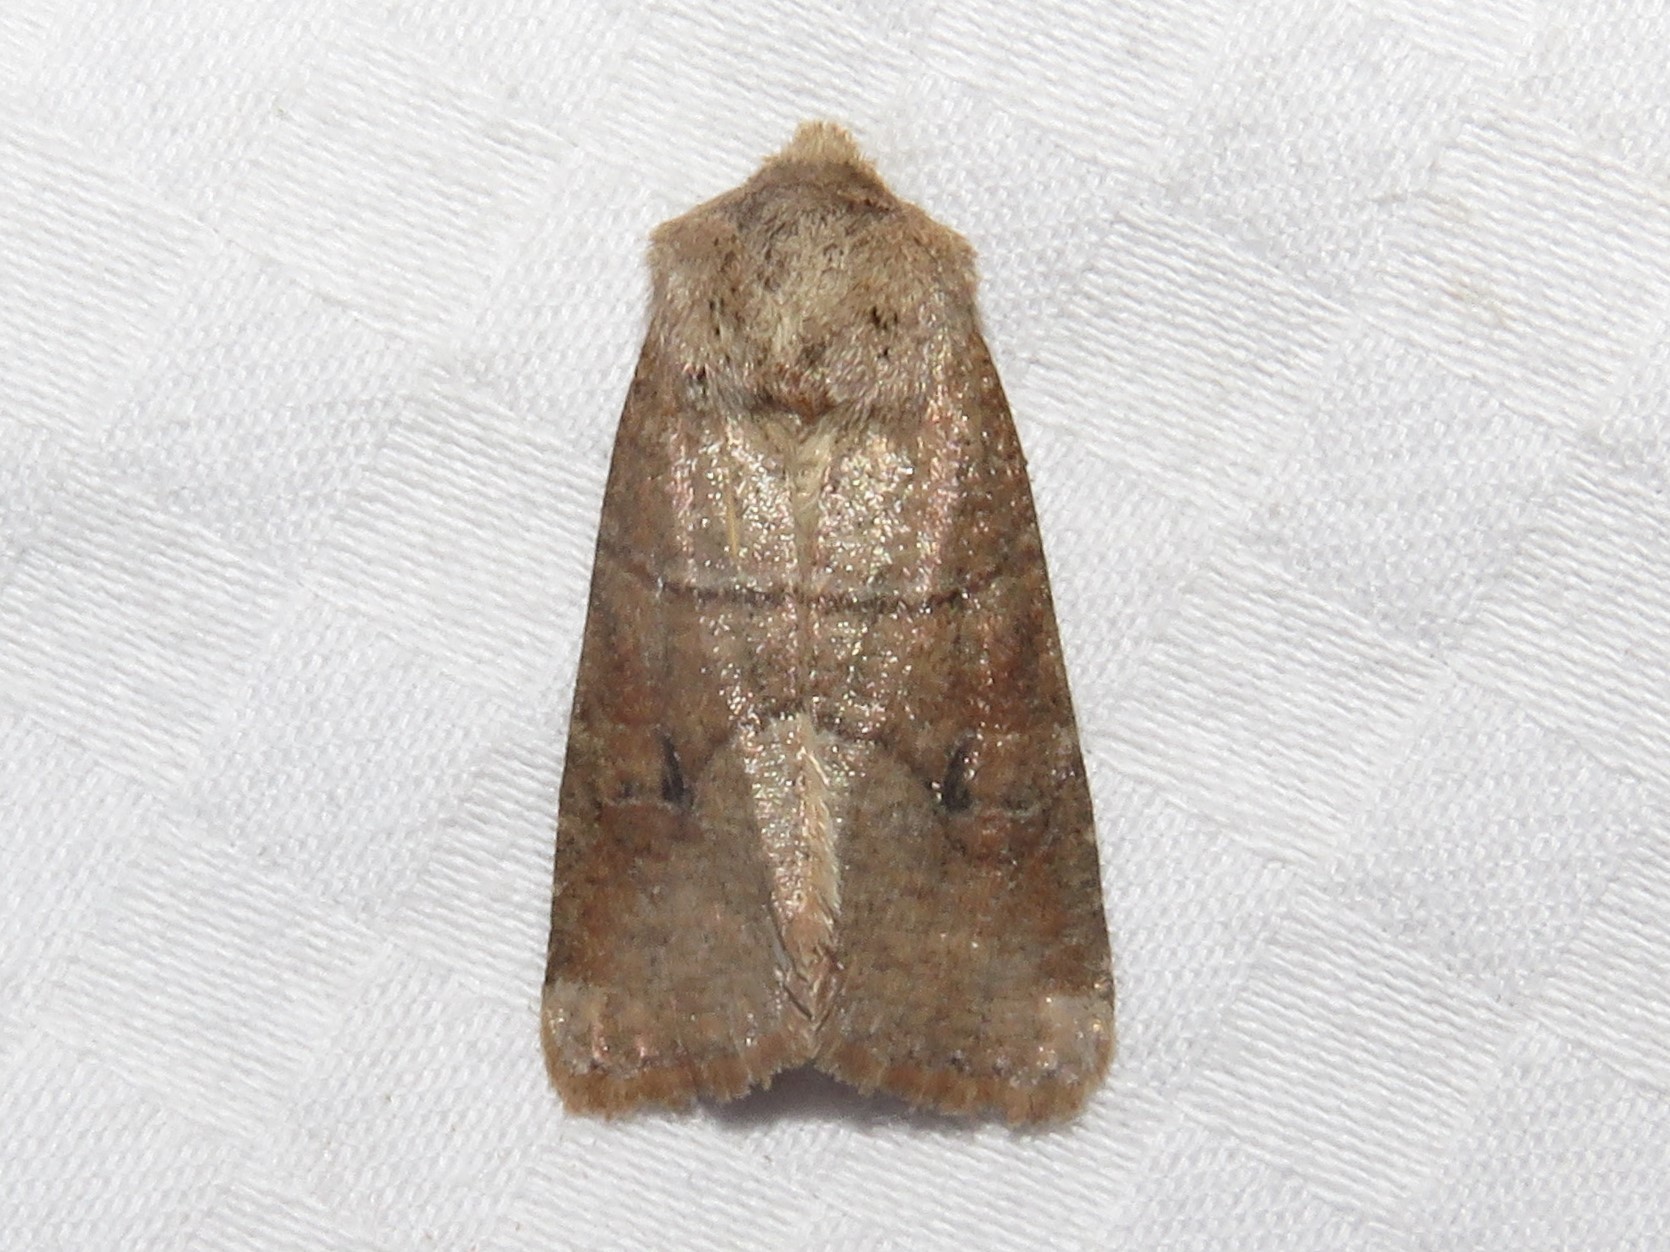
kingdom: Animalia
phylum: Arthropoda
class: Insecta
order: Lepidoptera
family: Noctuidae
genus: Crocigrapha
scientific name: Crocigrapha normani
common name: Norman's quaker
